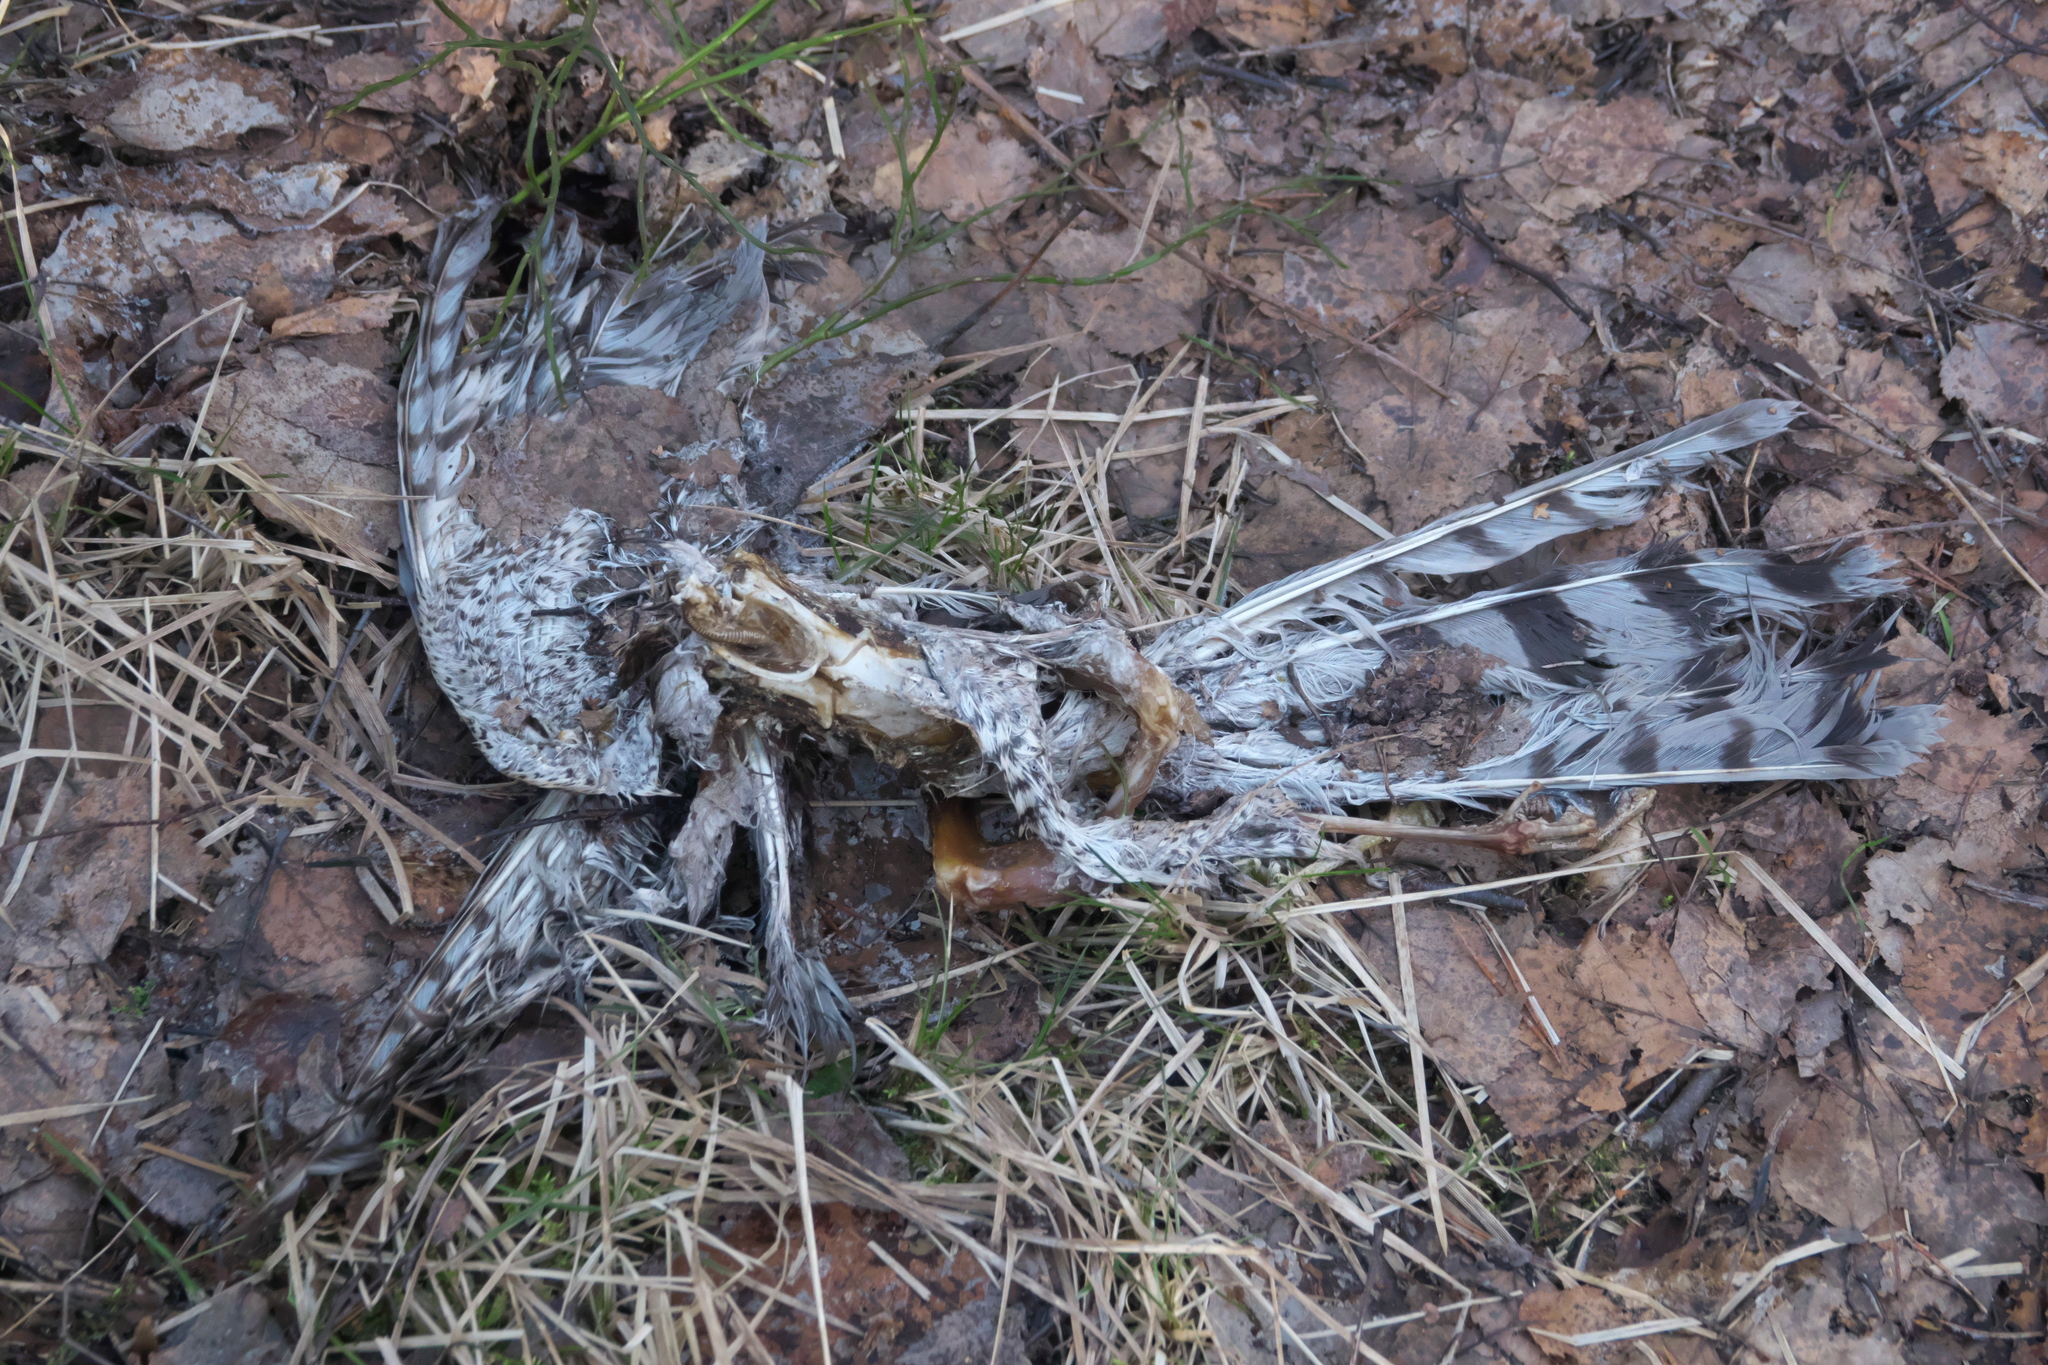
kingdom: Animalia
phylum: Chordata
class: Aves
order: Accipitriformes
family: Accipitridae
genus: Accipiter
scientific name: Accipiter nisus
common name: Eurasian sparrowhawk
